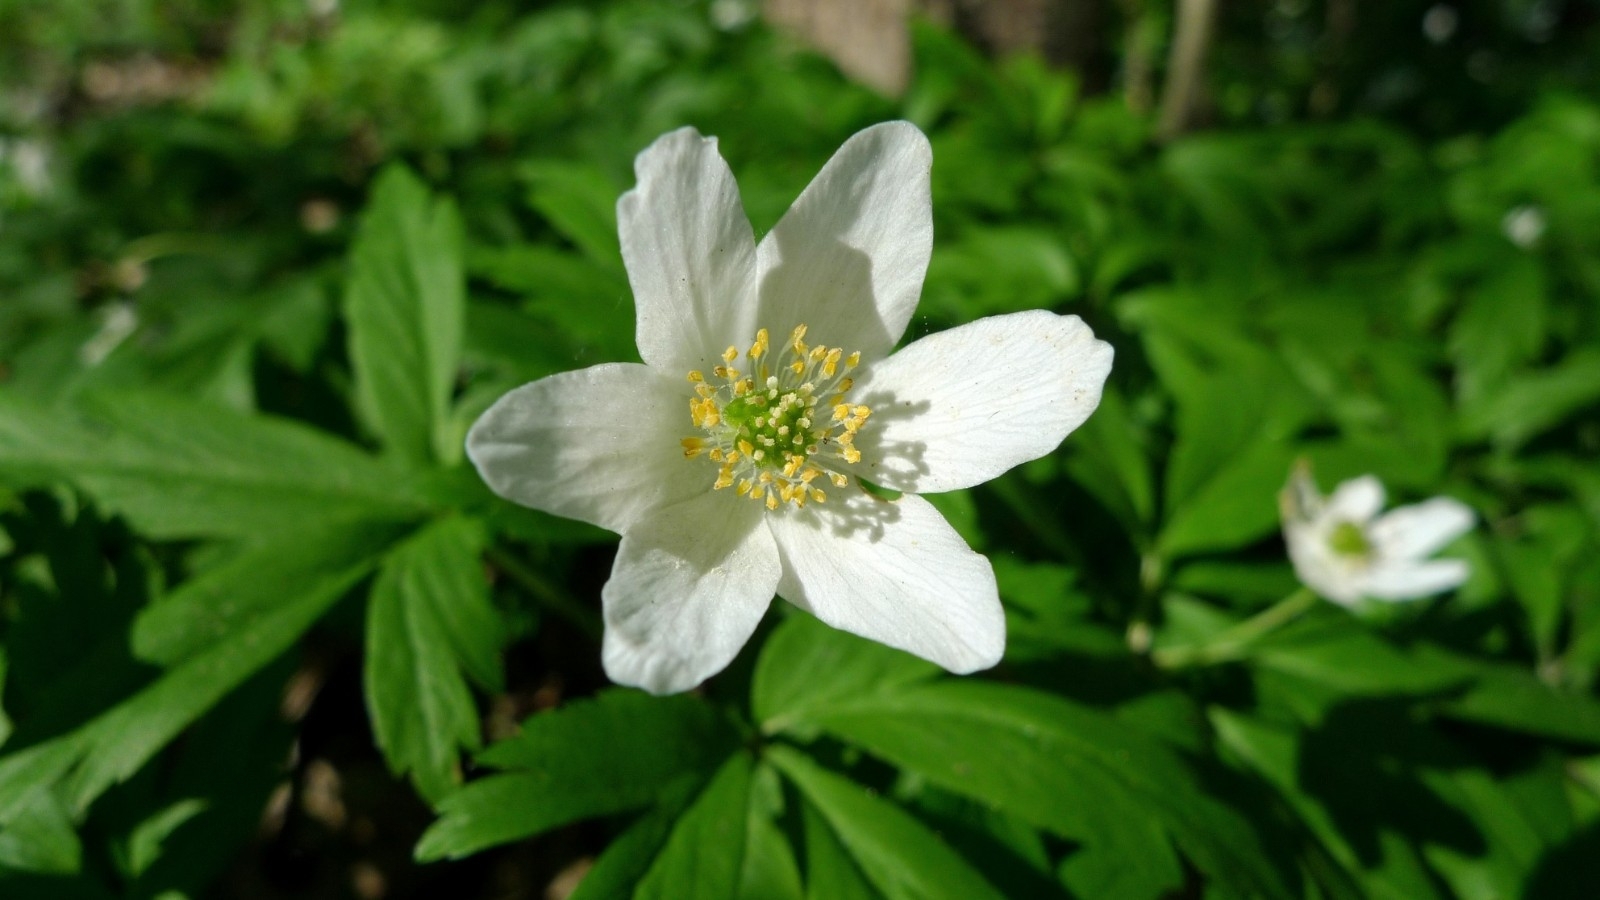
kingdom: Plantae
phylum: Tracheophyta
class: Magnoliopsida
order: Ranunculales
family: Ranunculaceae
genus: Anemone
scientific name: Anemone nemorosa
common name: Wood anemone
